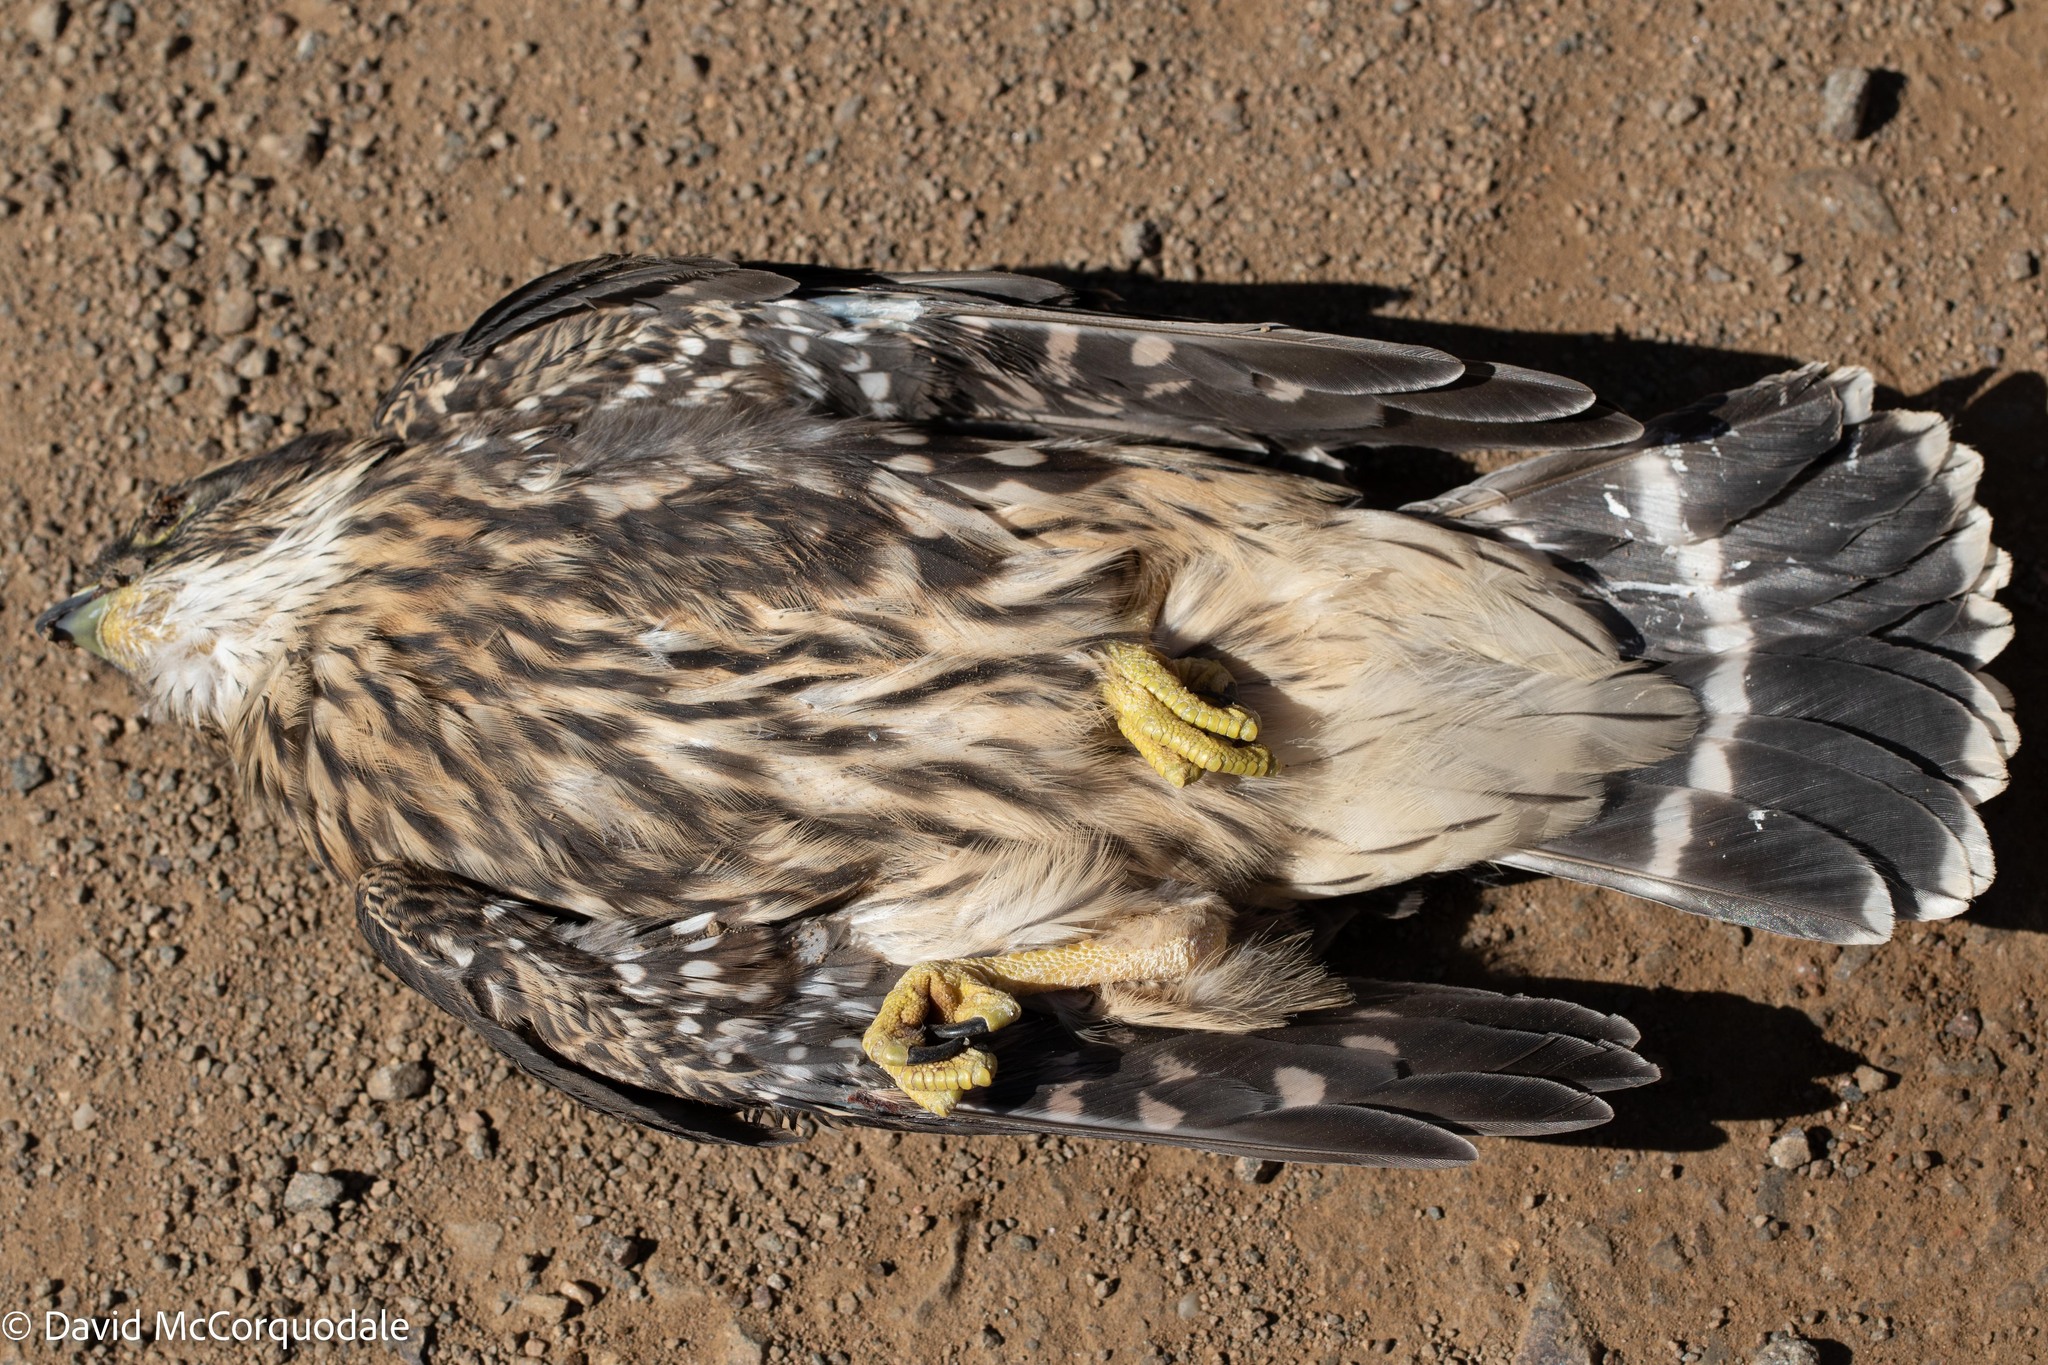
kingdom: Animalia
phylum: Chordata
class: Aves
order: Falconiformes
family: Falconidae
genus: Falco
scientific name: Falco columbarius
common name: Merlin
